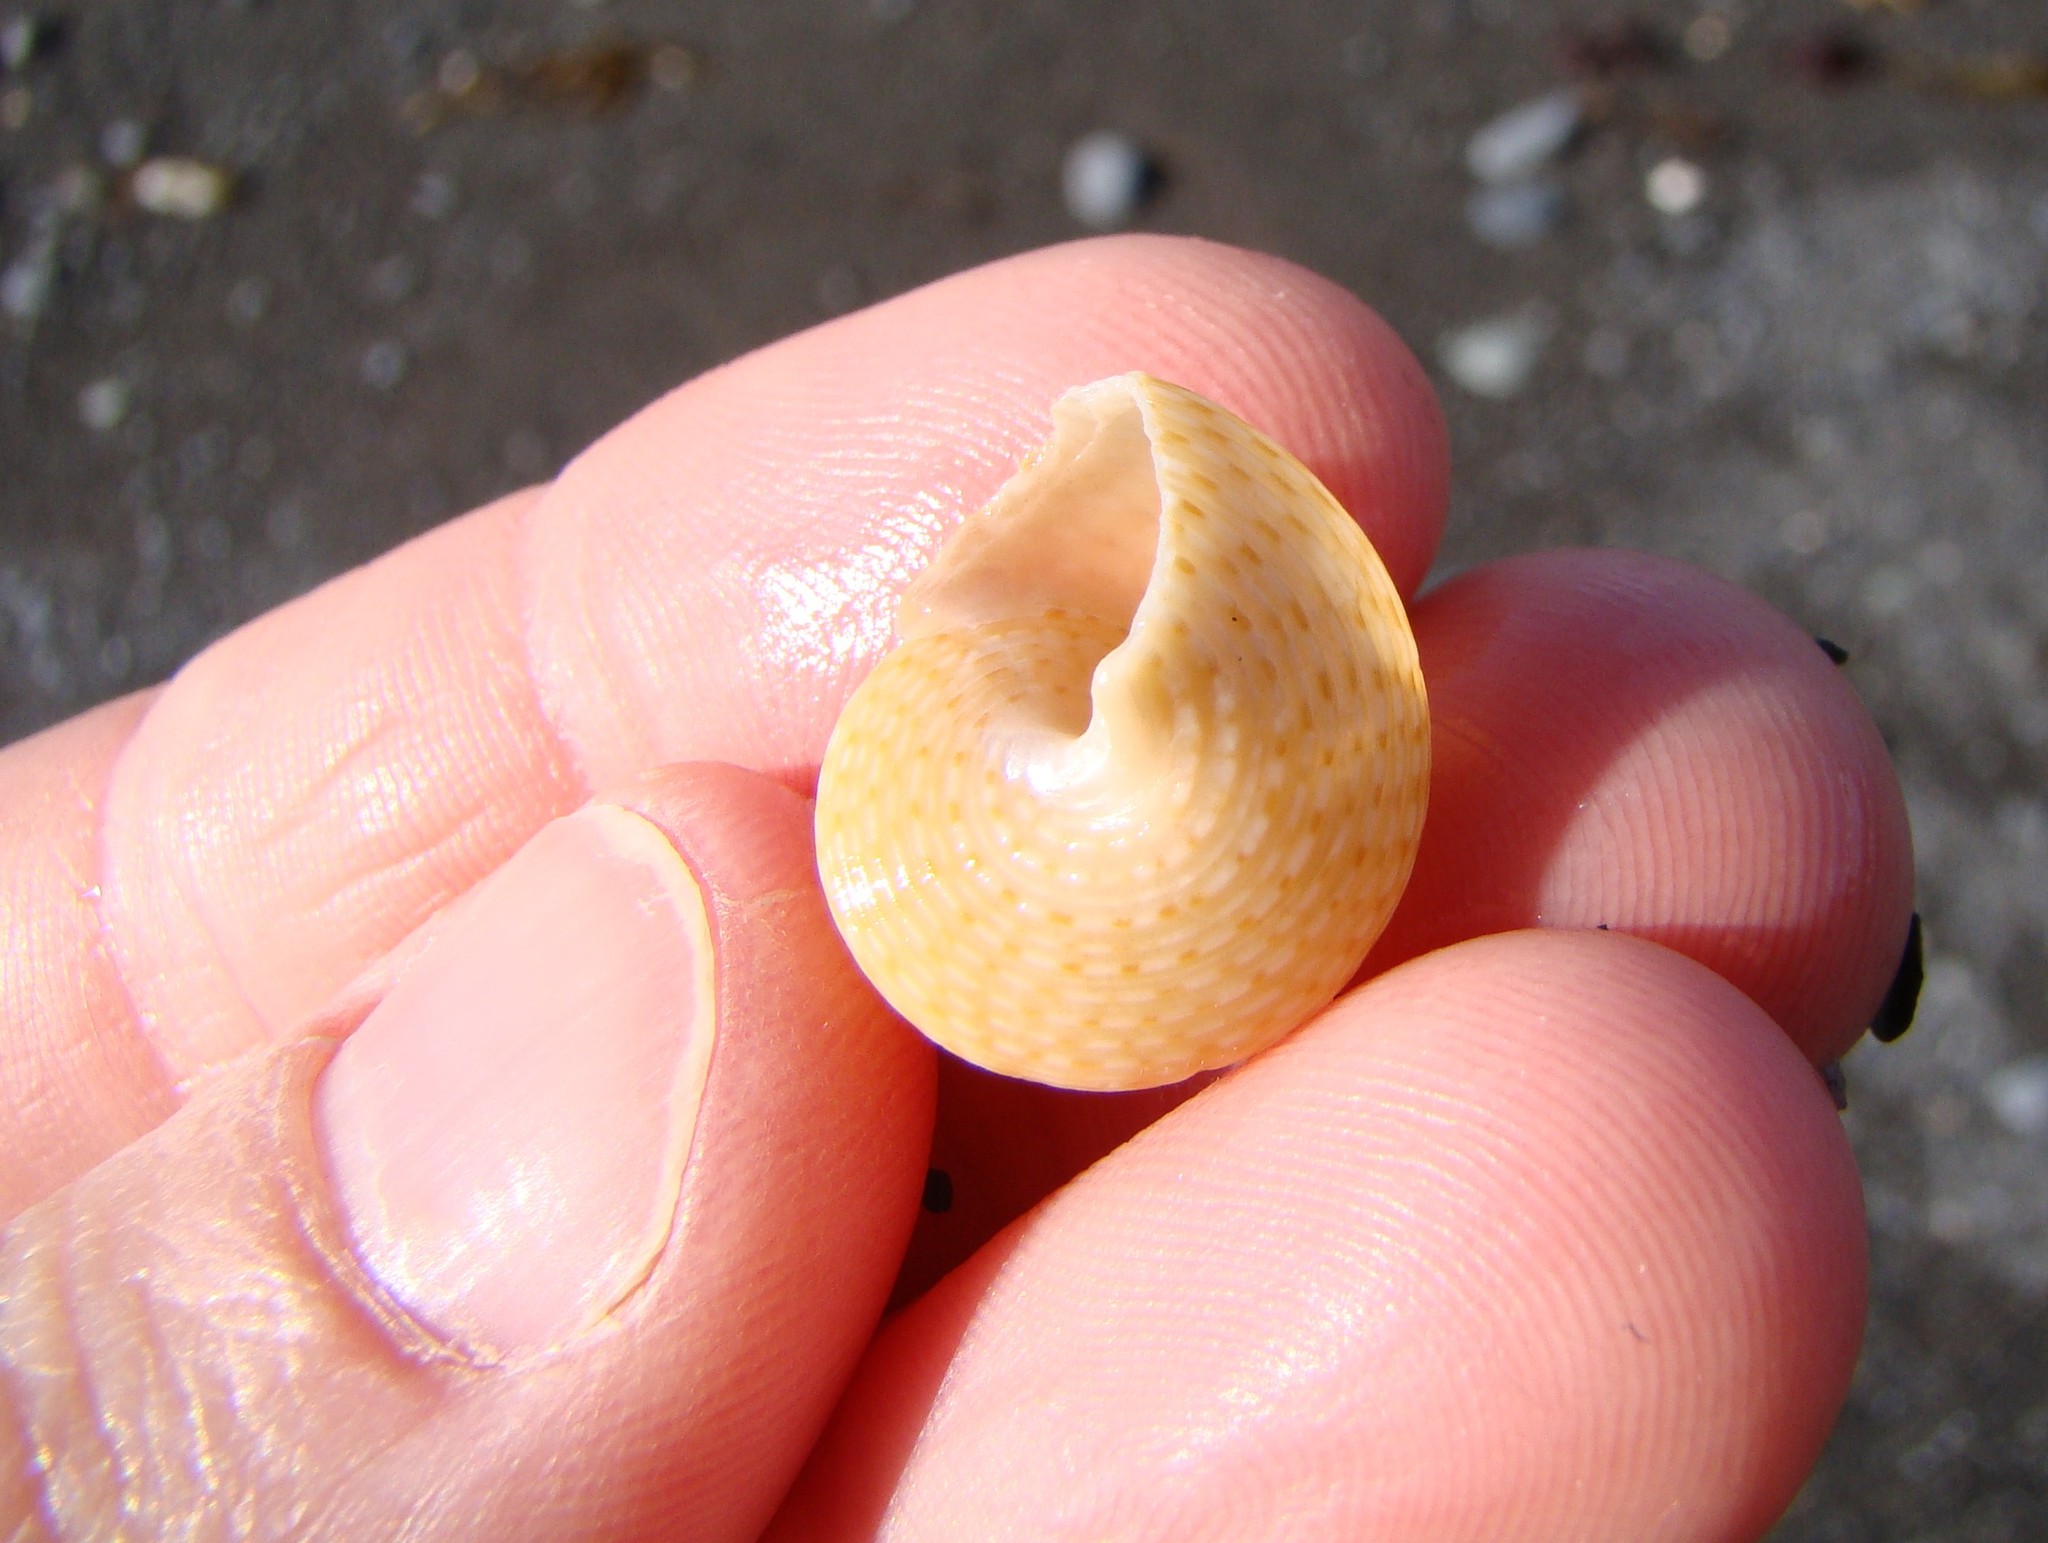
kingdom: Animalia
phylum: Mollusca
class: Gastropoda
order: Trochida
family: Calliostomatidae
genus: Maurea
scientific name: Maurea punctulata
